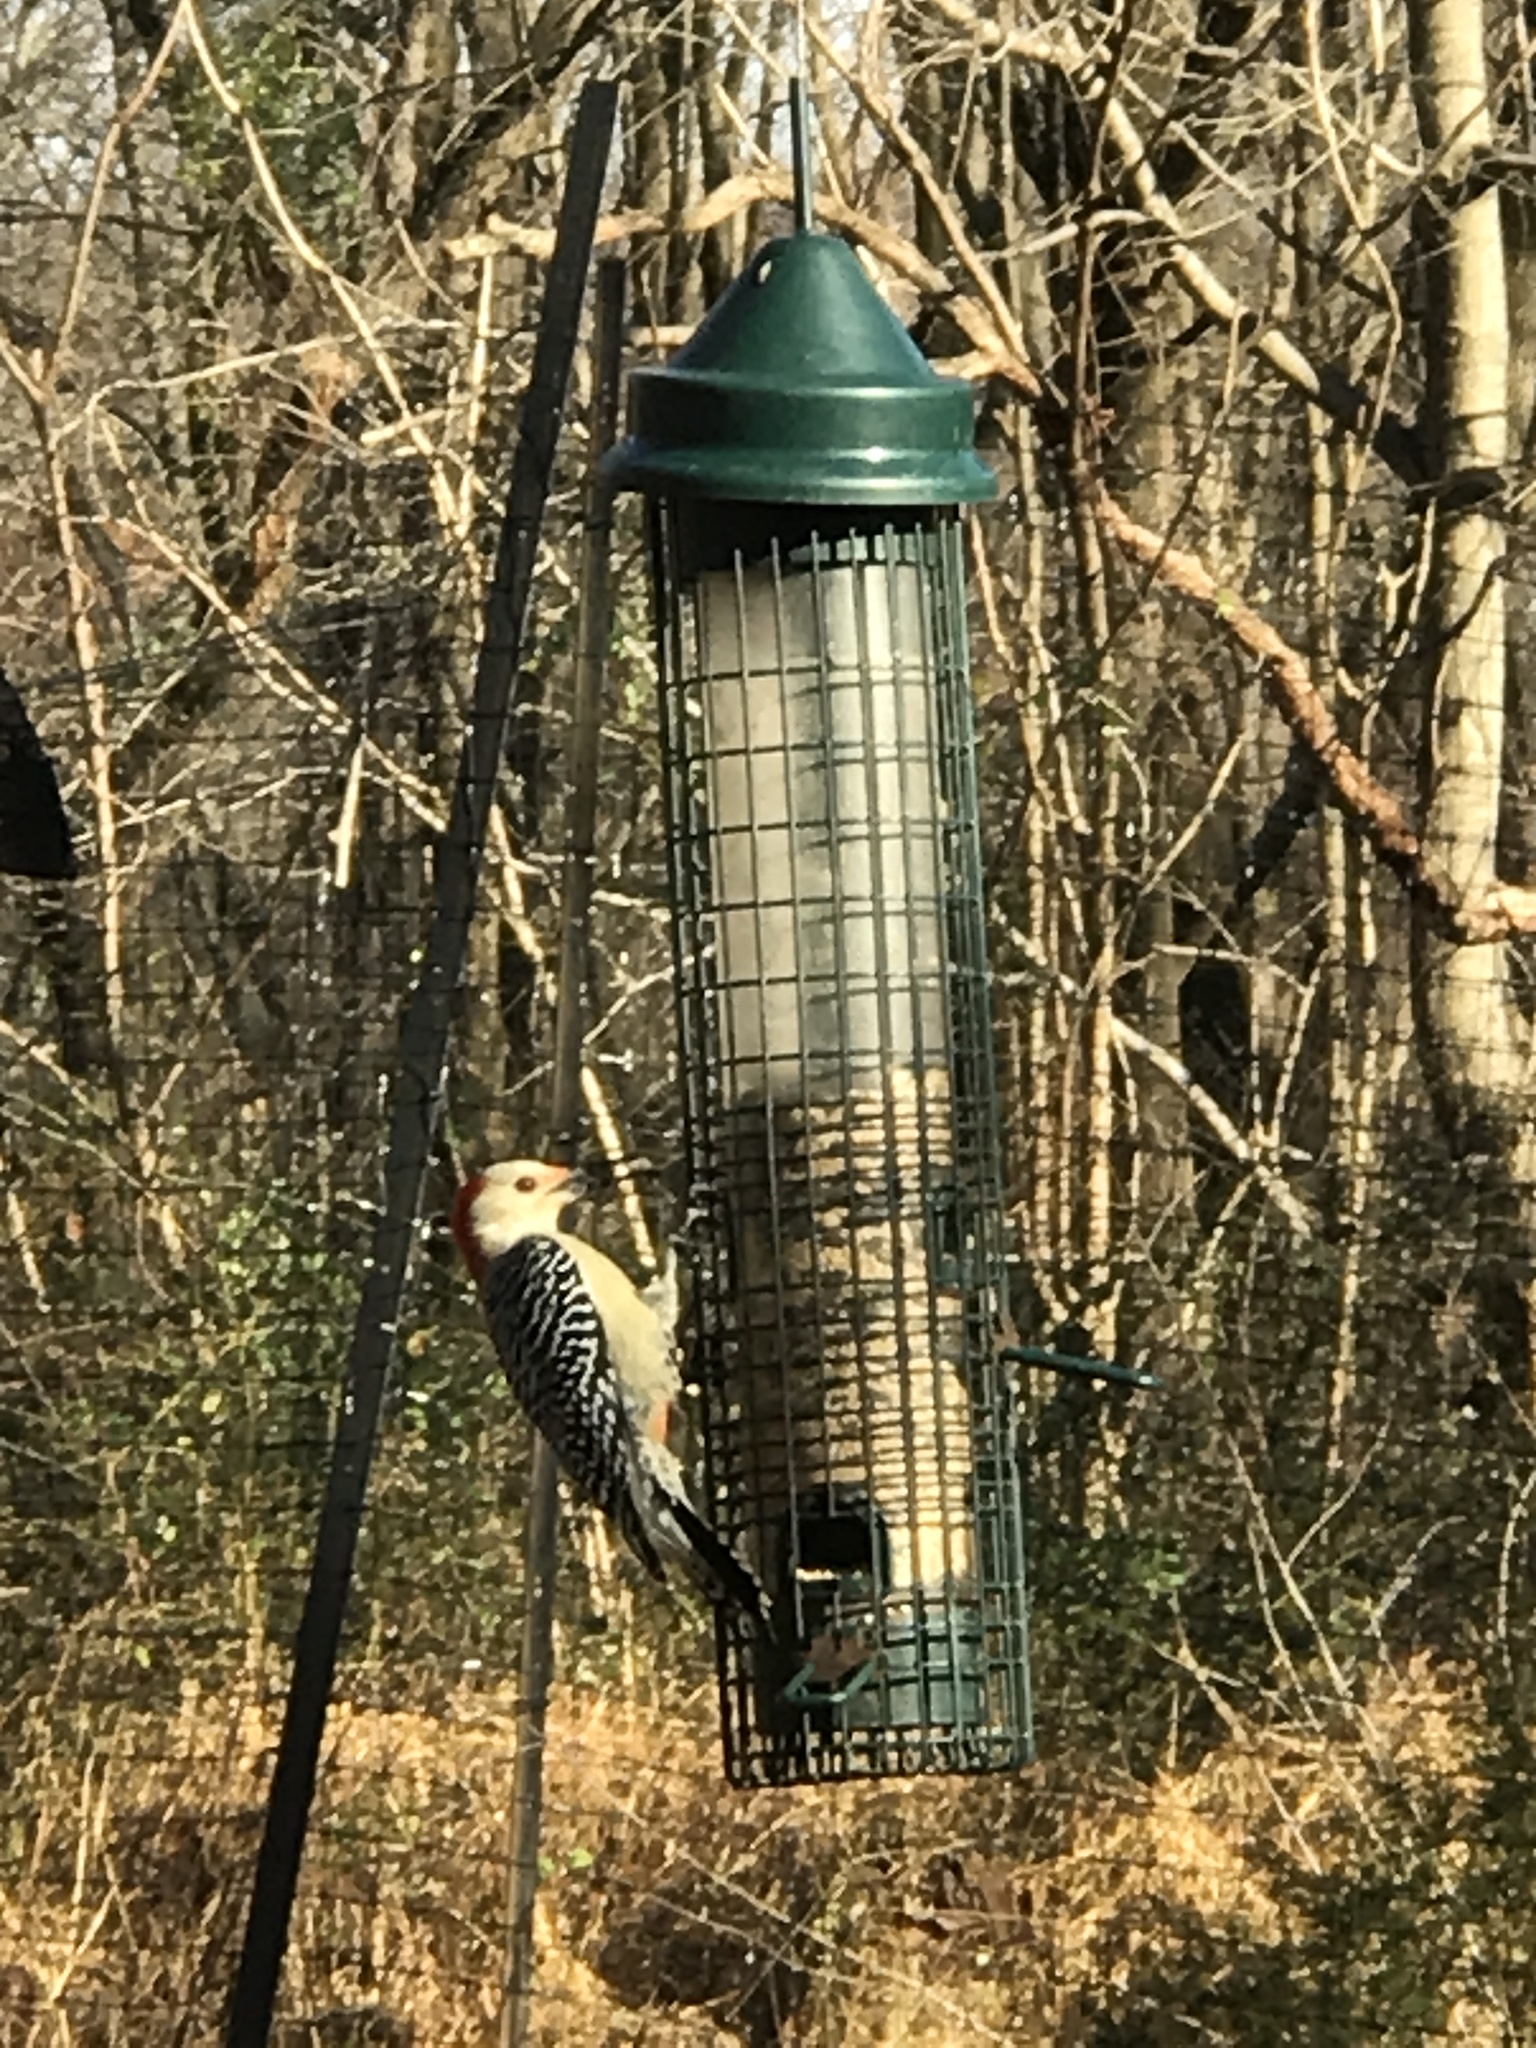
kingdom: Animalia
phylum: Chordata
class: Aves
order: Piciformes
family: Picidae
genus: Melanerpes
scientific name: Melanerpes carolinus
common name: Red-bellied woodpecker
